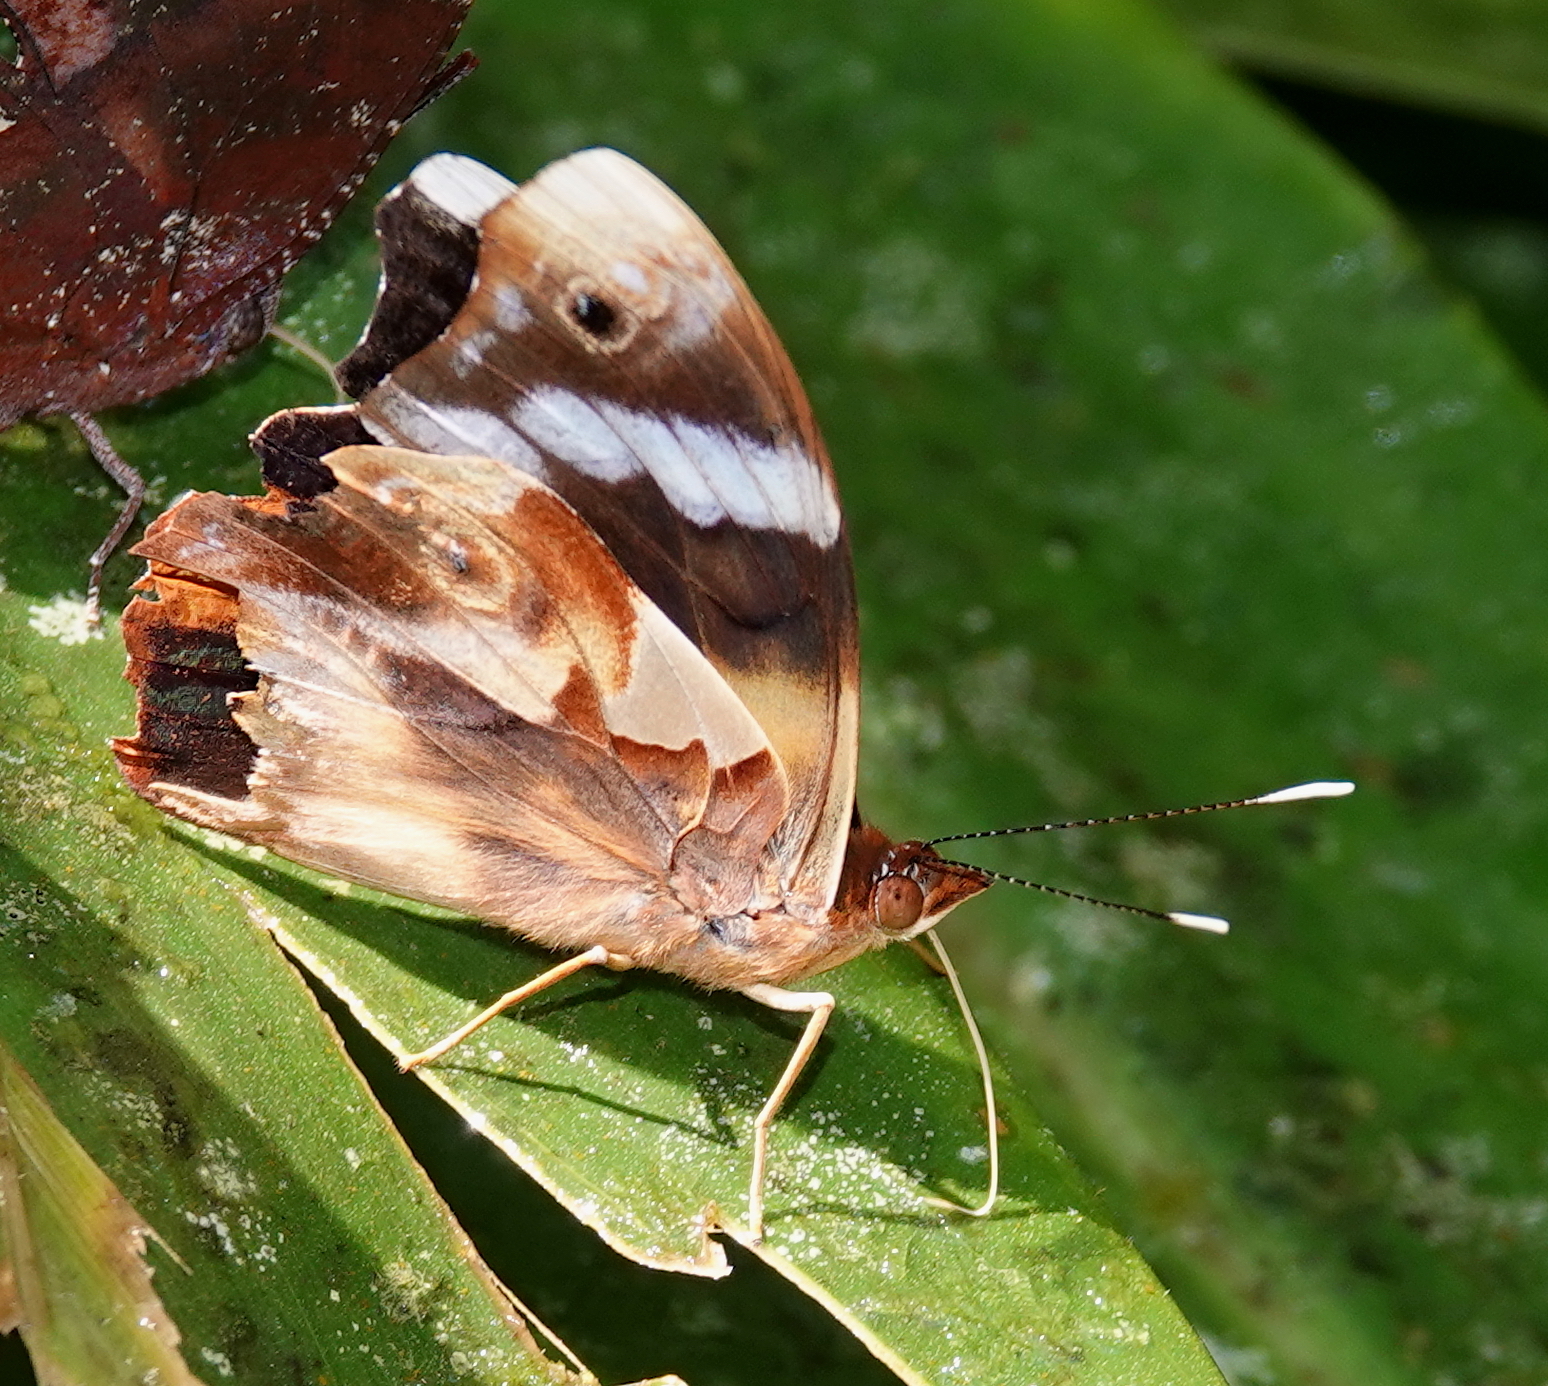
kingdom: Animalia
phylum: Arthropoda
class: Insecta
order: Lepidoptera
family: Nymphalidae
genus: Epiphile
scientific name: Epiphile eriopis
